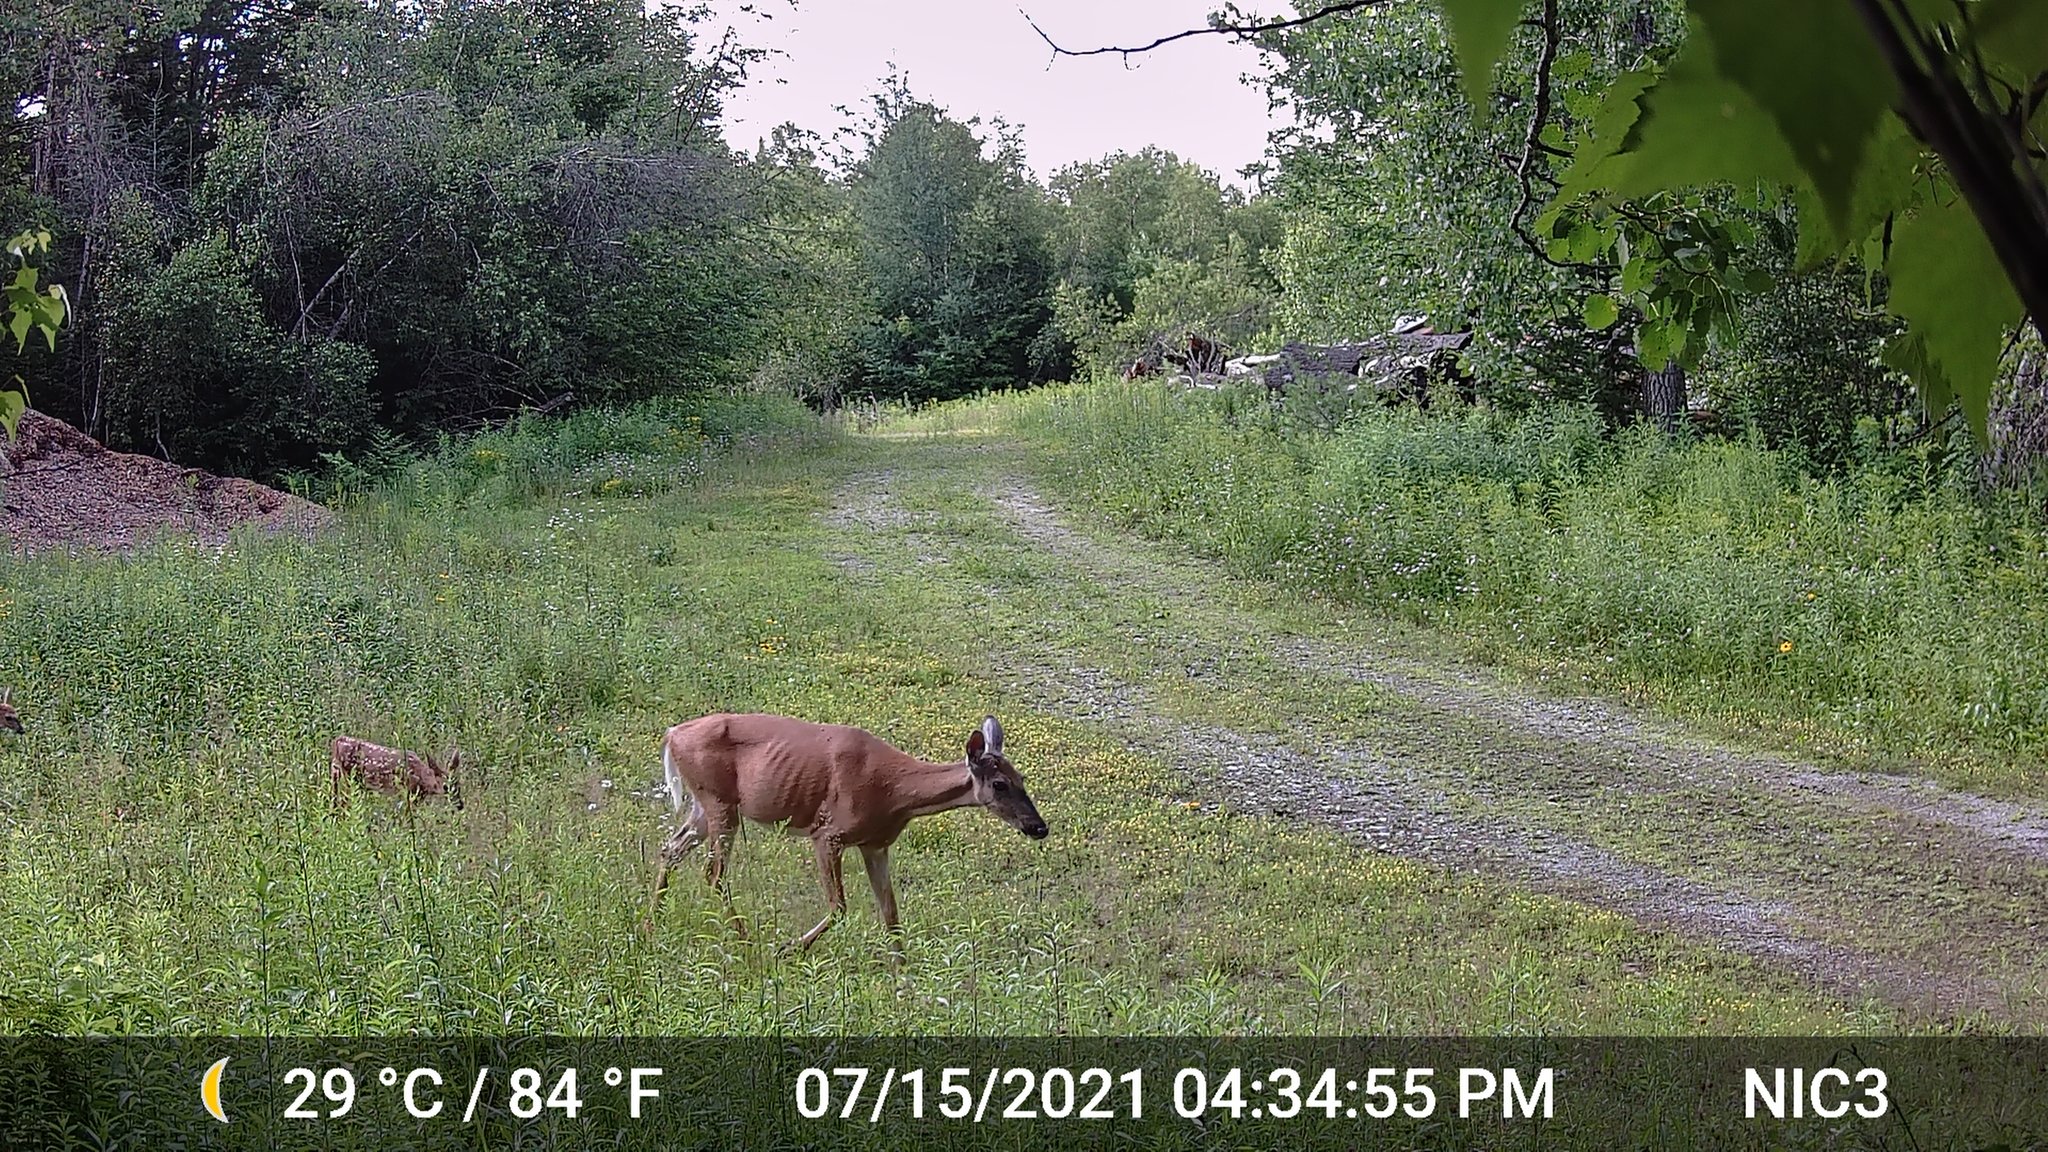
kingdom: Animalia
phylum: Chordata
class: Mammalia
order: Artiodactyla
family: Cervidae
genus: Odocoileus
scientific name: Odocoileus virginianus
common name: White-tailed deer
